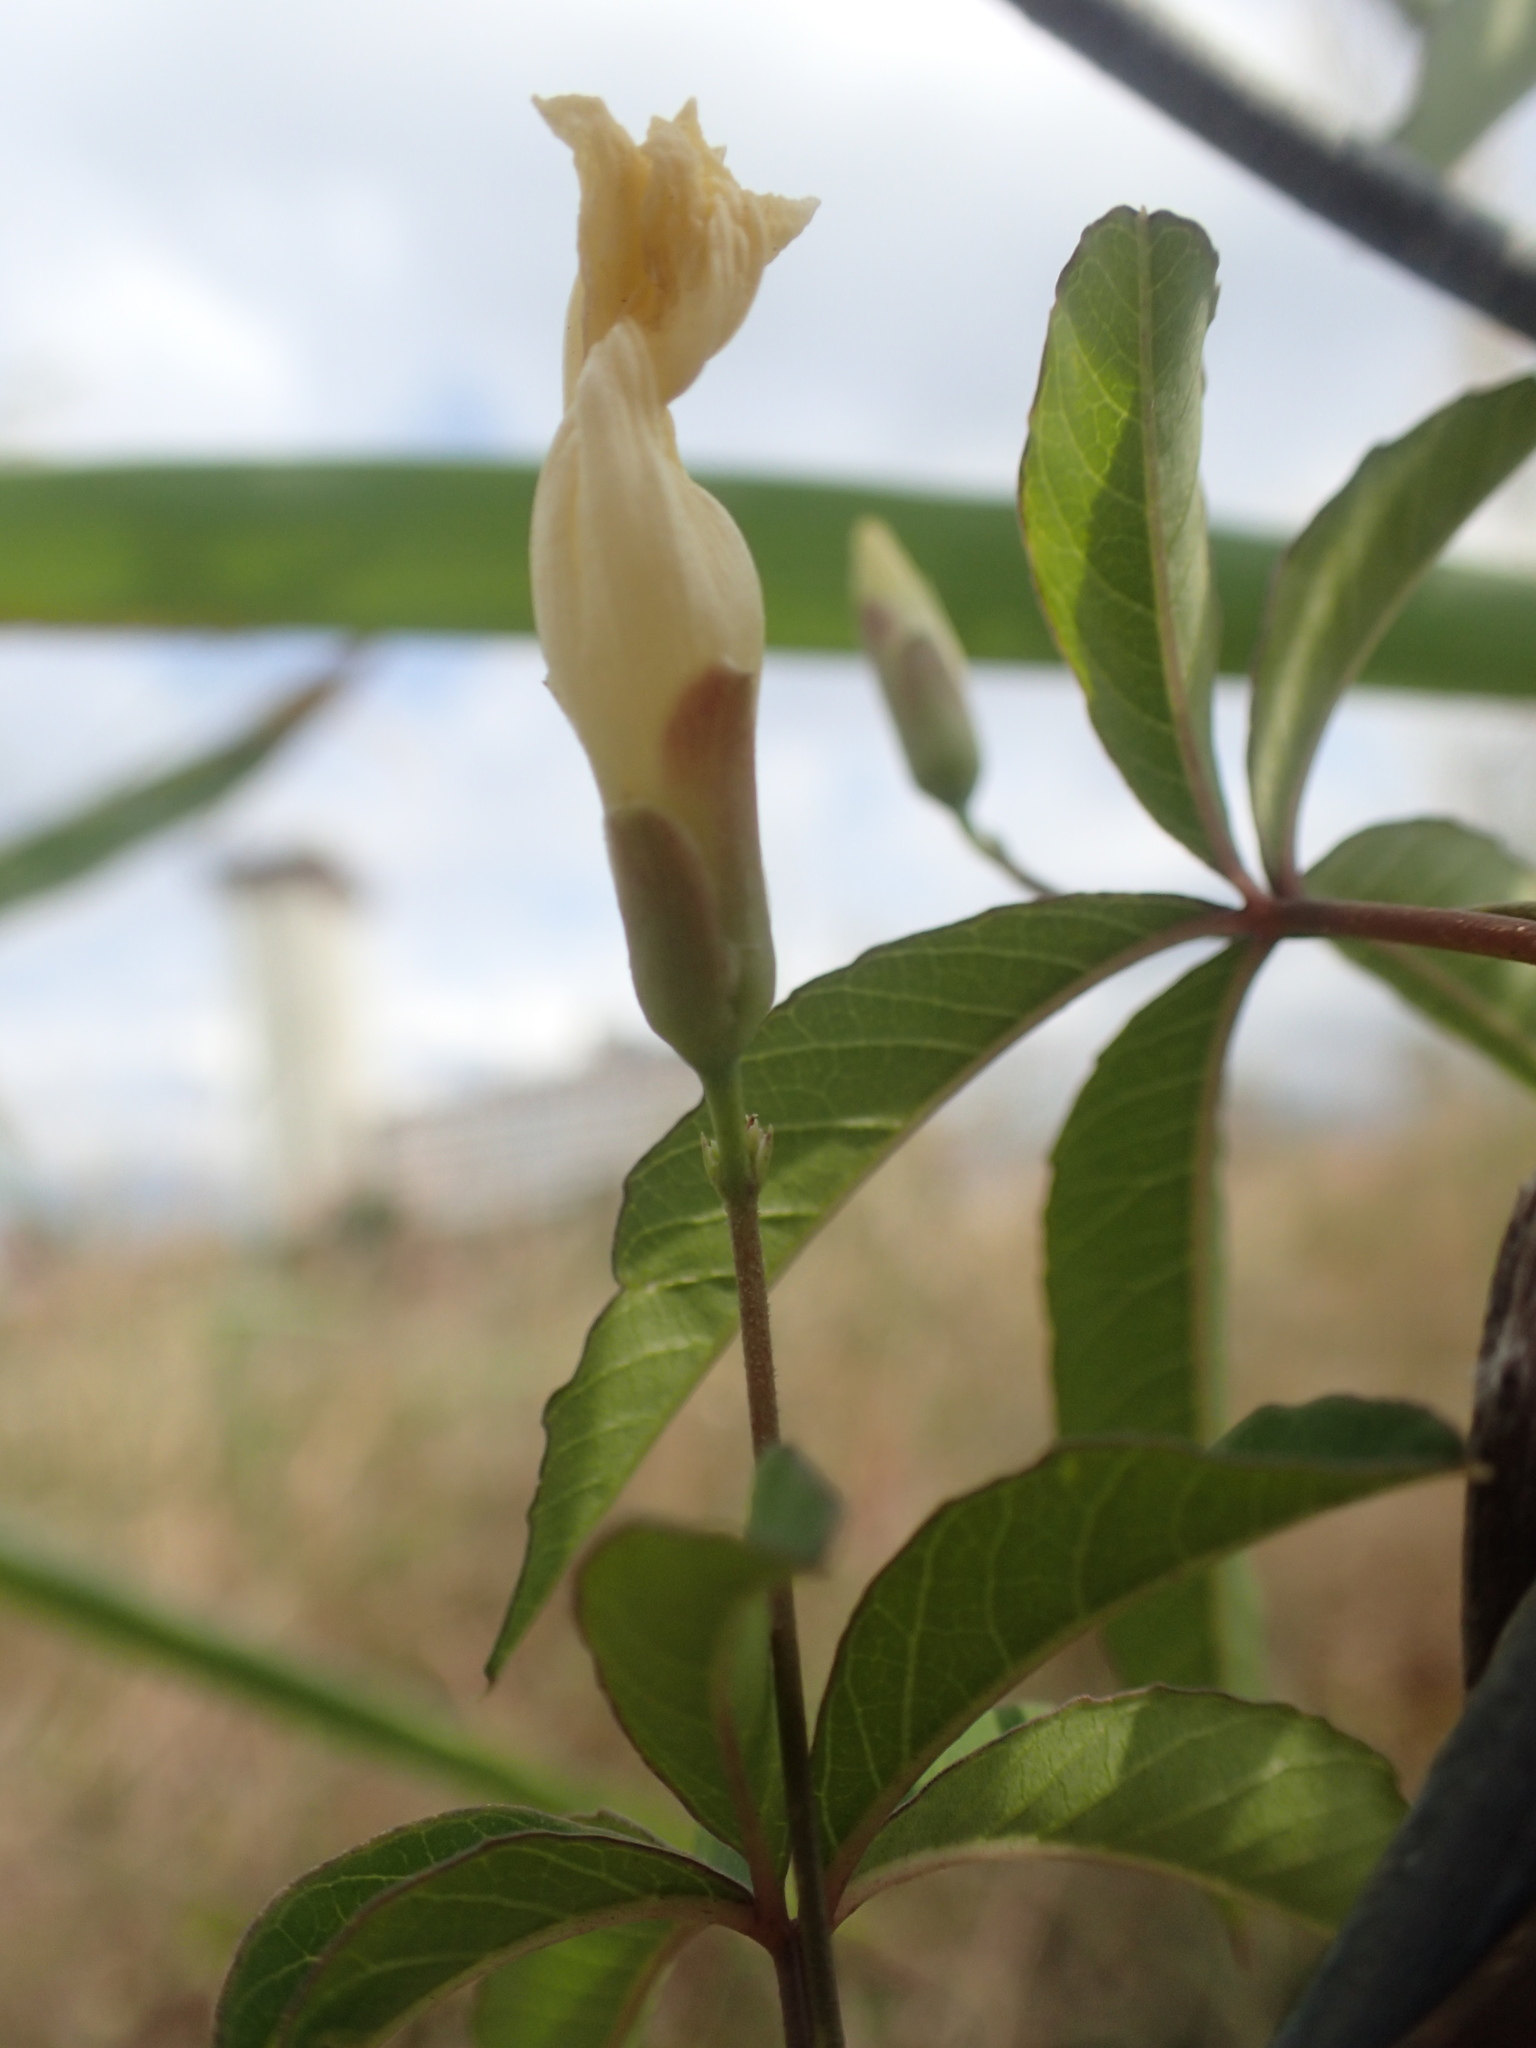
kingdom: Plantae
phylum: Tracheophyta
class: Magnoliopsida
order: Solanales
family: Convolvulaceae
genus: Distimake
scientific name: Distimake quinquefolius
